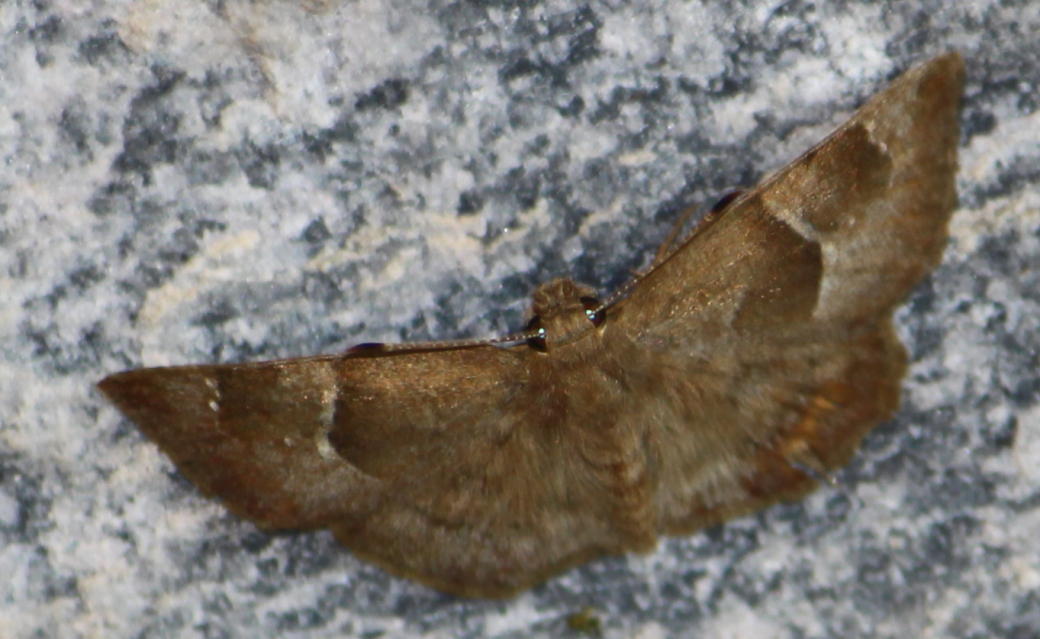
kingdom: Animalia
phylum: Arthropoda
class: Insecta
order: Lepidoptera
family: Hesperiidae
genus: Sarangesa
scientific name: Sarangesa phidyle
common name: Small elfin
